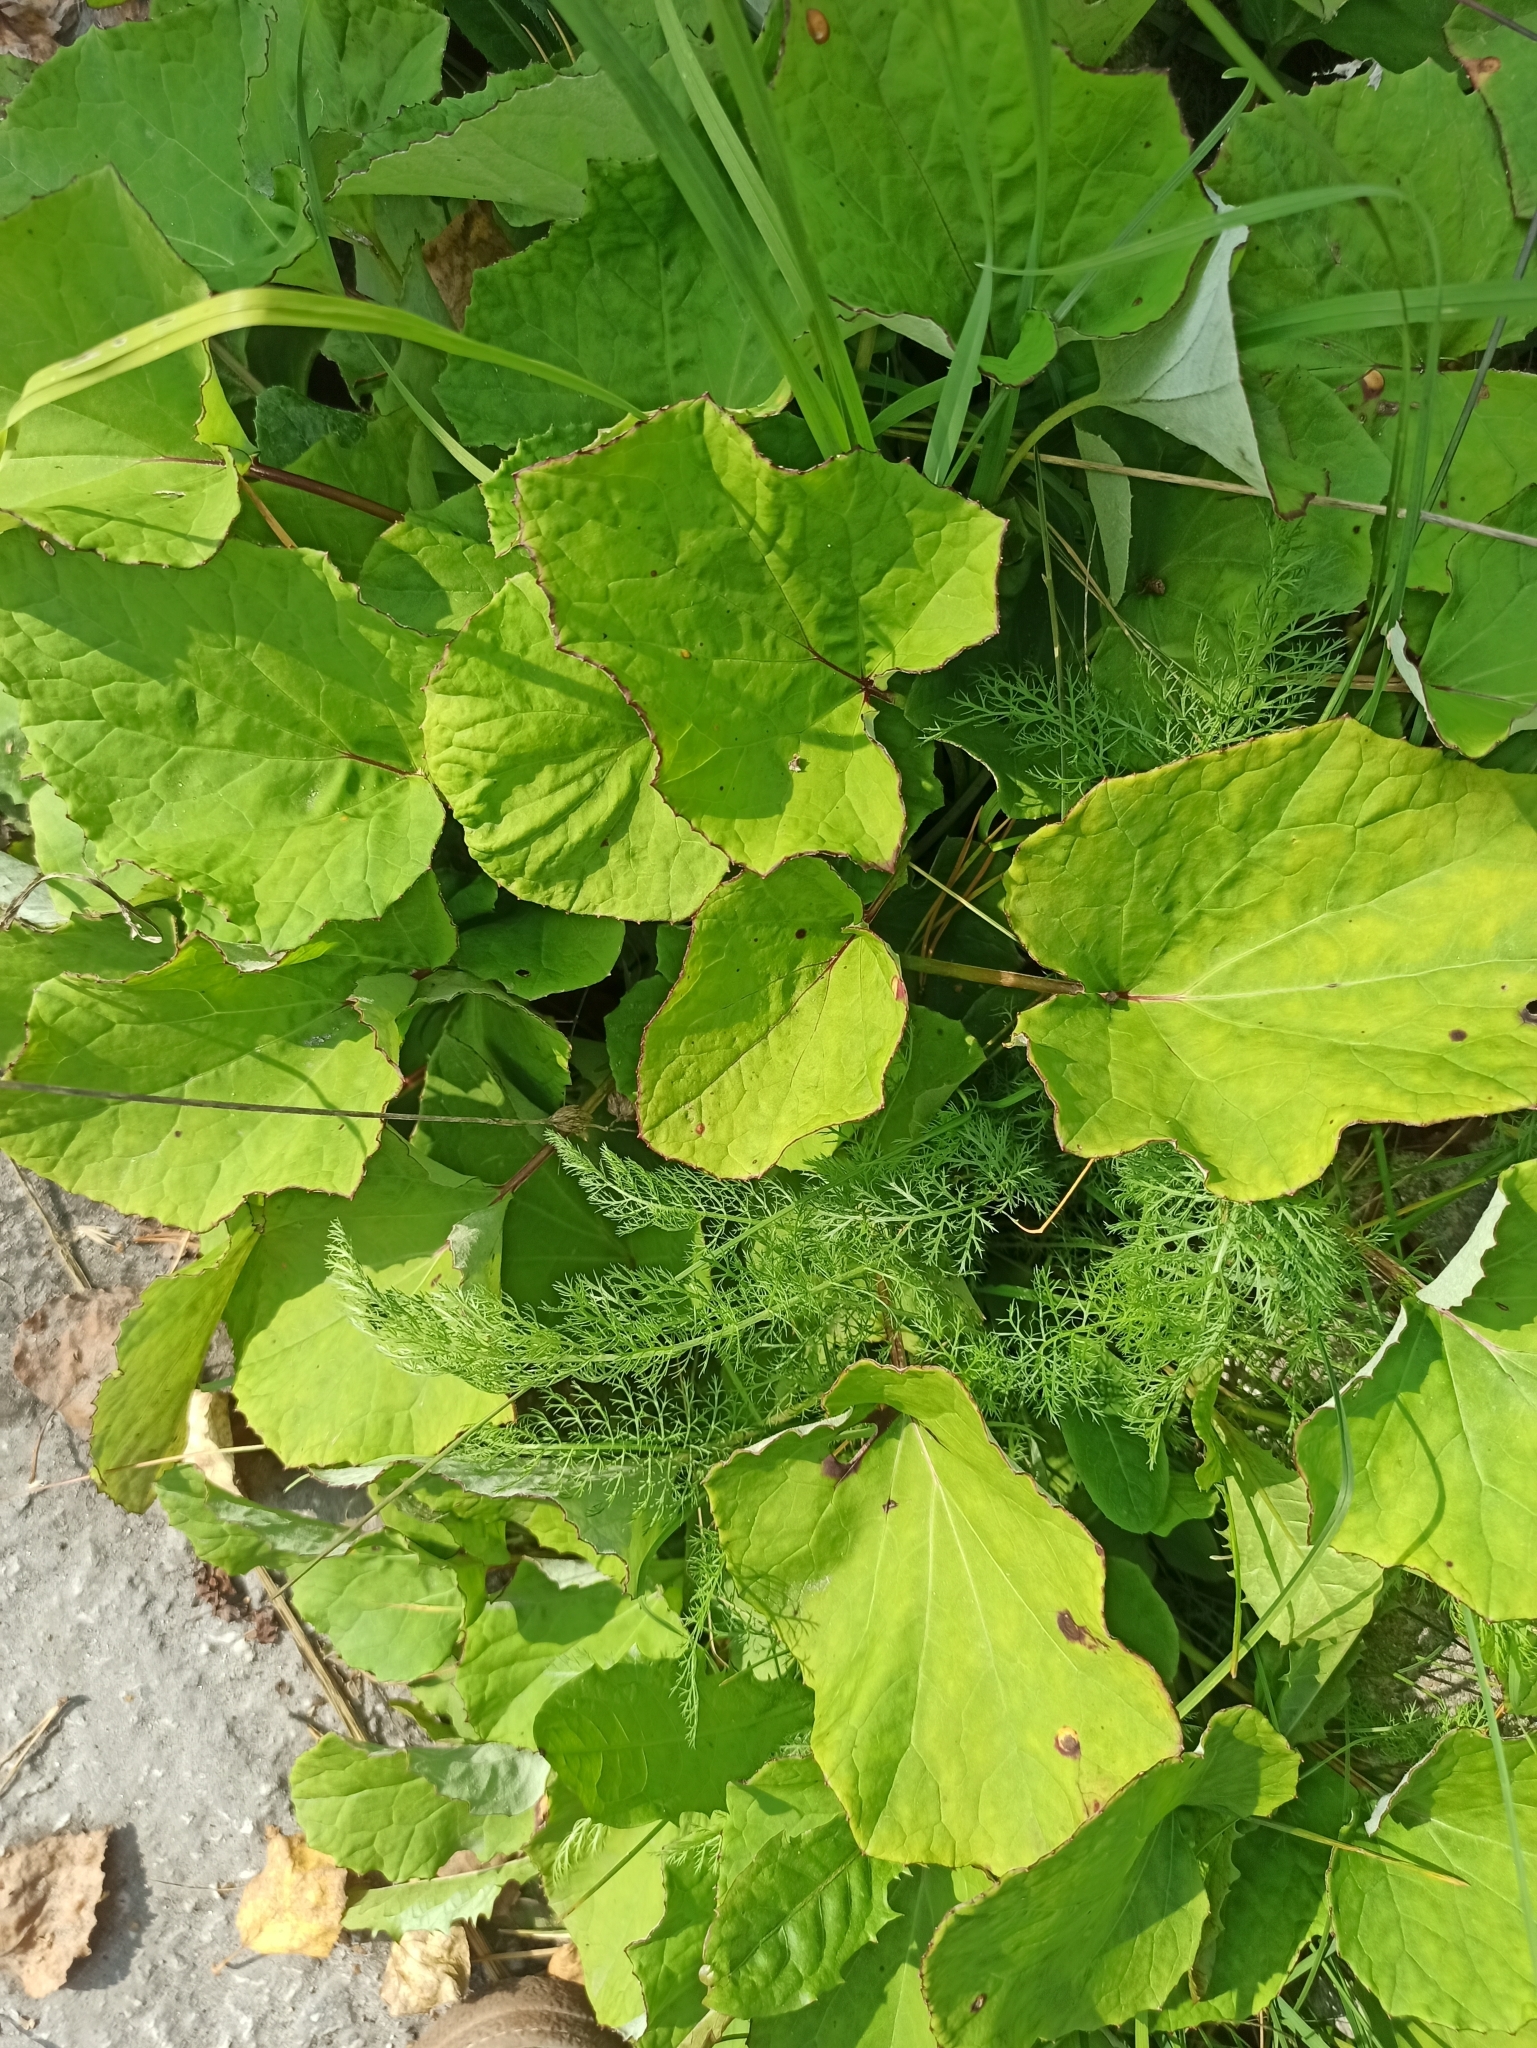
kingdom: Plantae
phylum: Tracheophyta
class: Magnoliopsida
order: Asterales
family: Asteraceae
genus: Tussilago
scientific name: Tussilago farfara
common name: Coltsfoot
